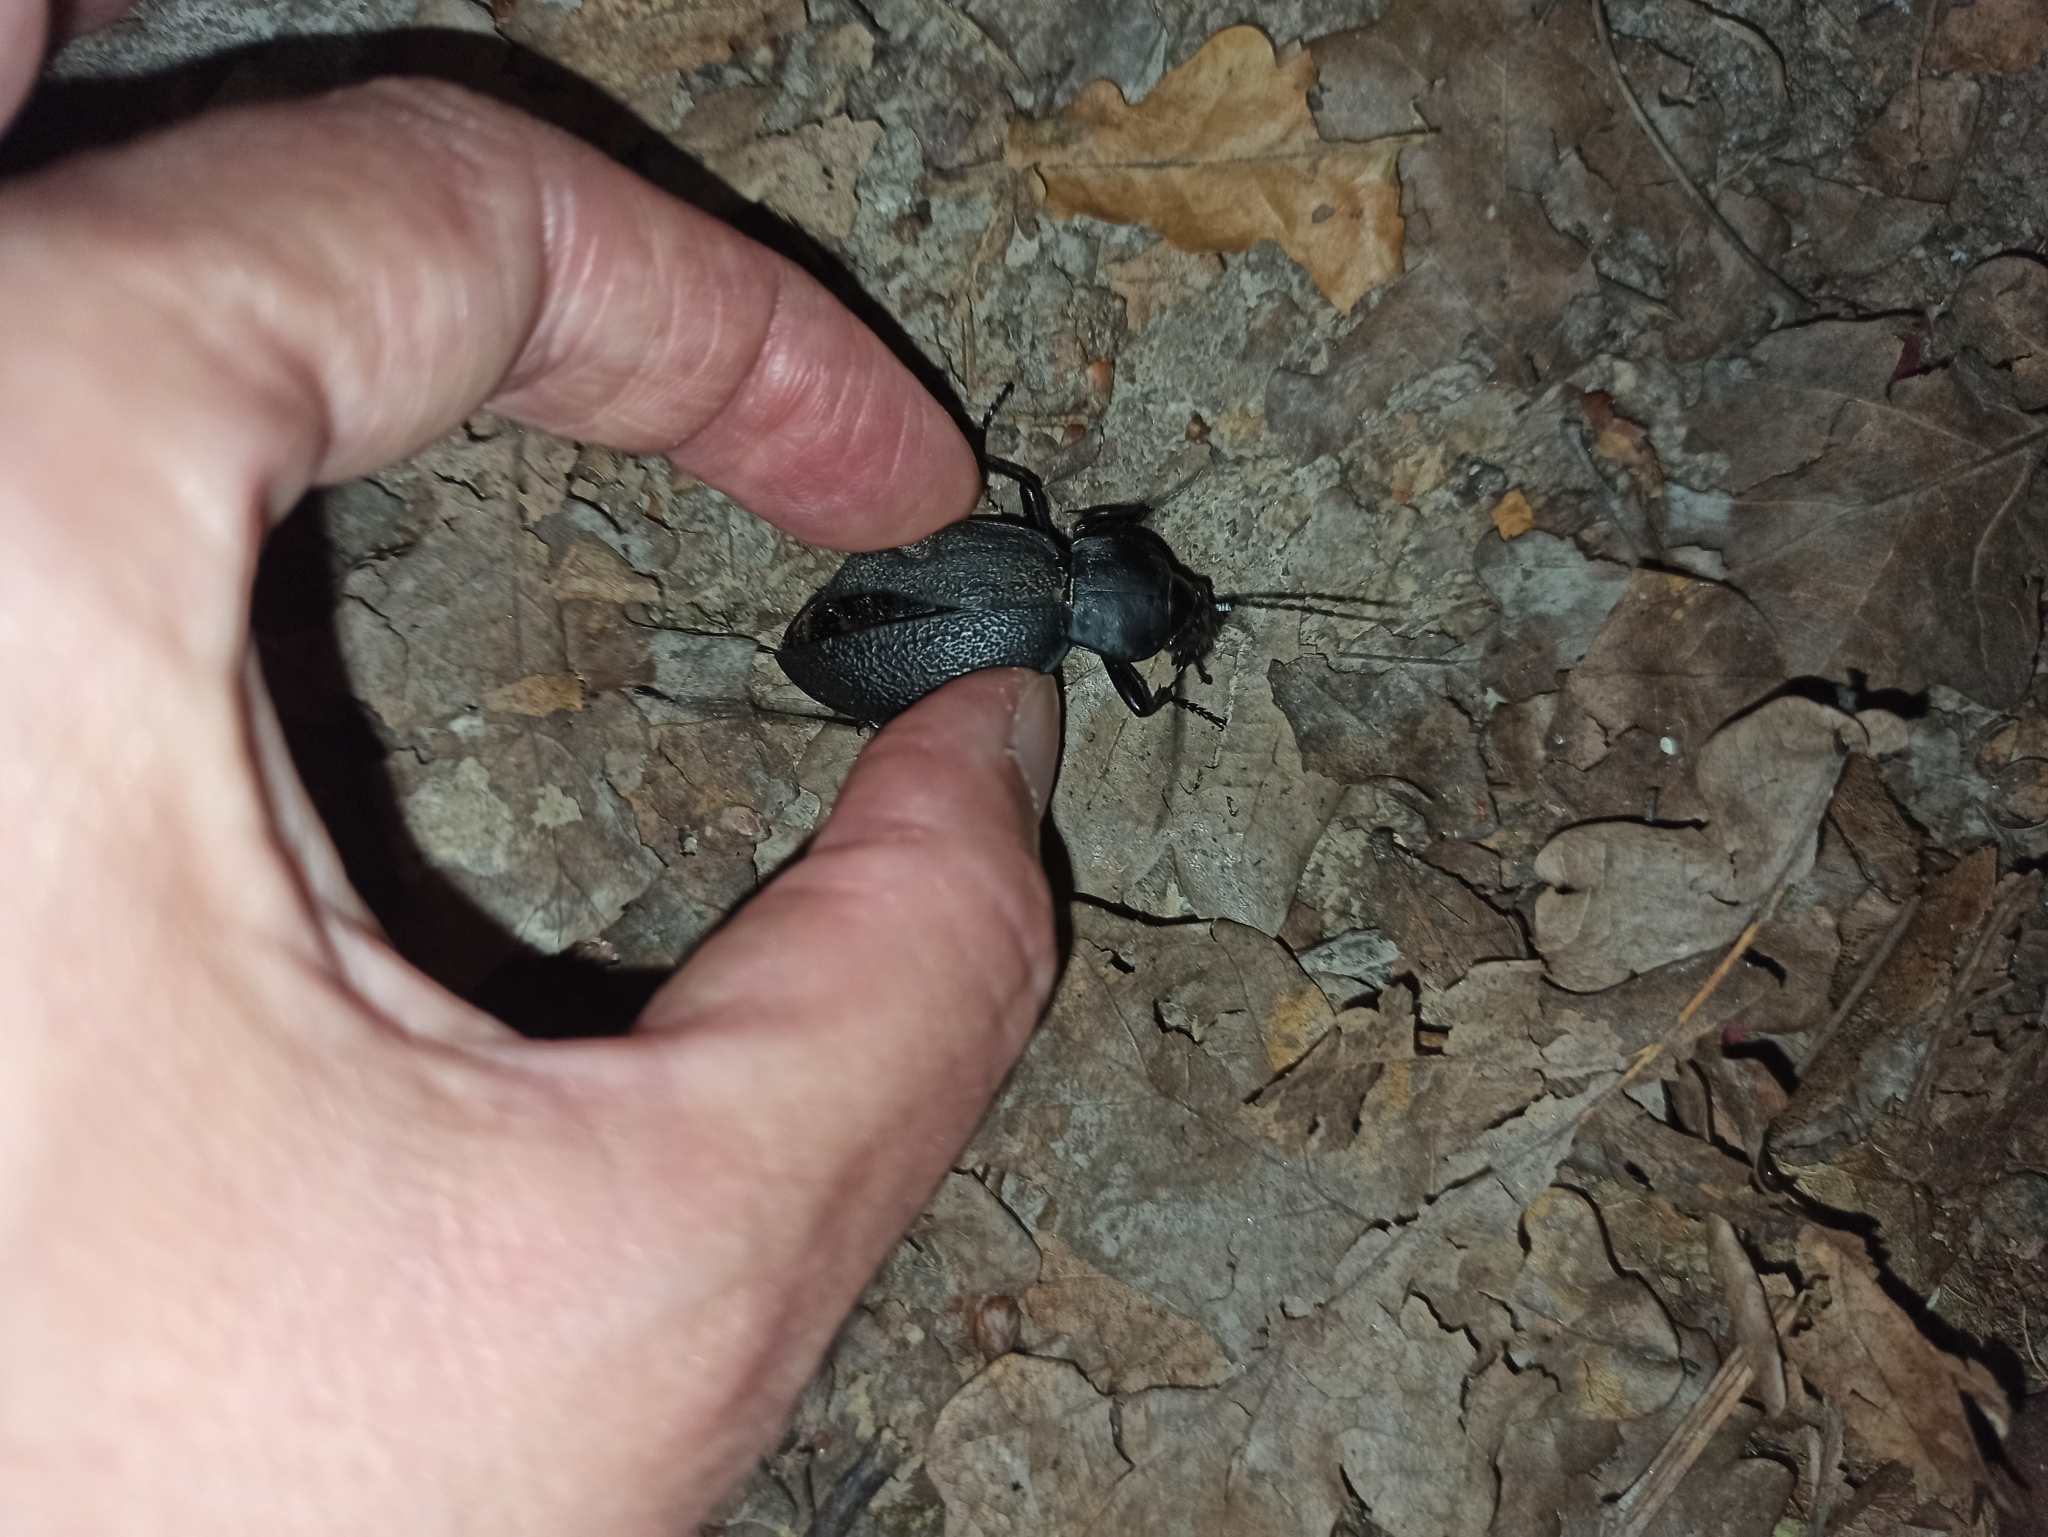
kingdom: Animalia
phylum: Arthropoda
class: Insecta
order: Coleoptera
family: Carabidae
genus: Carabus
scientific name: Carabus coriaceus
